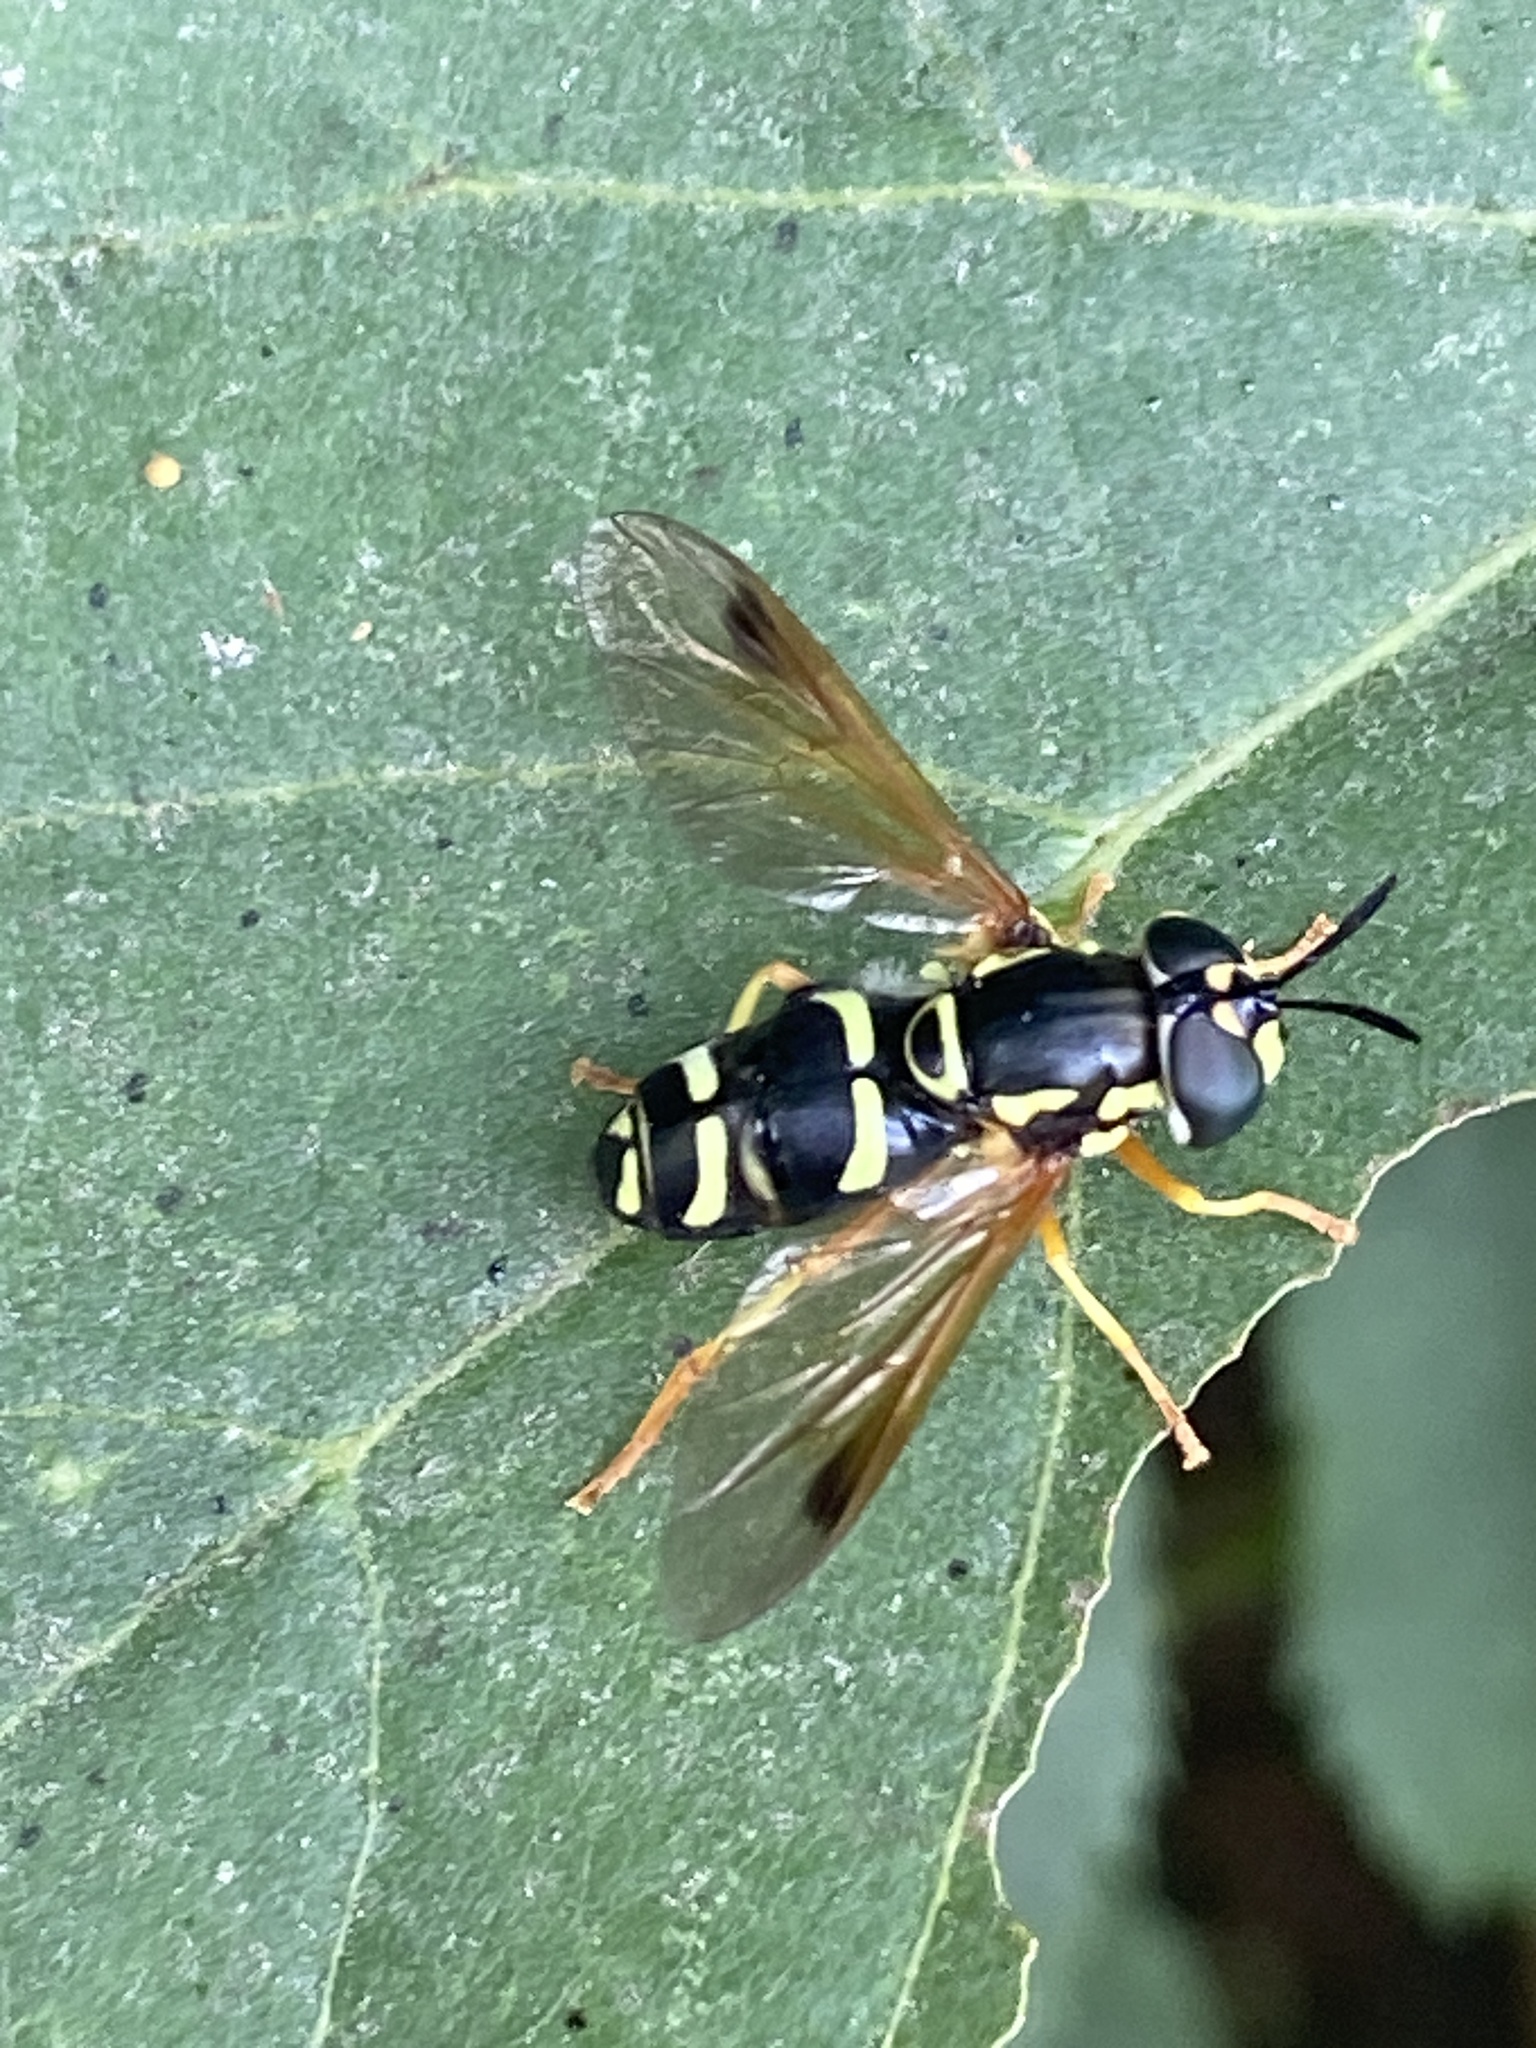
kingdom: Animalia
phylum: Arthropoda
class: Insecta
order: Diptera
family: Syrphidae
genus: Chrysotoxum
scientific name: Chrysotoxum festivum
